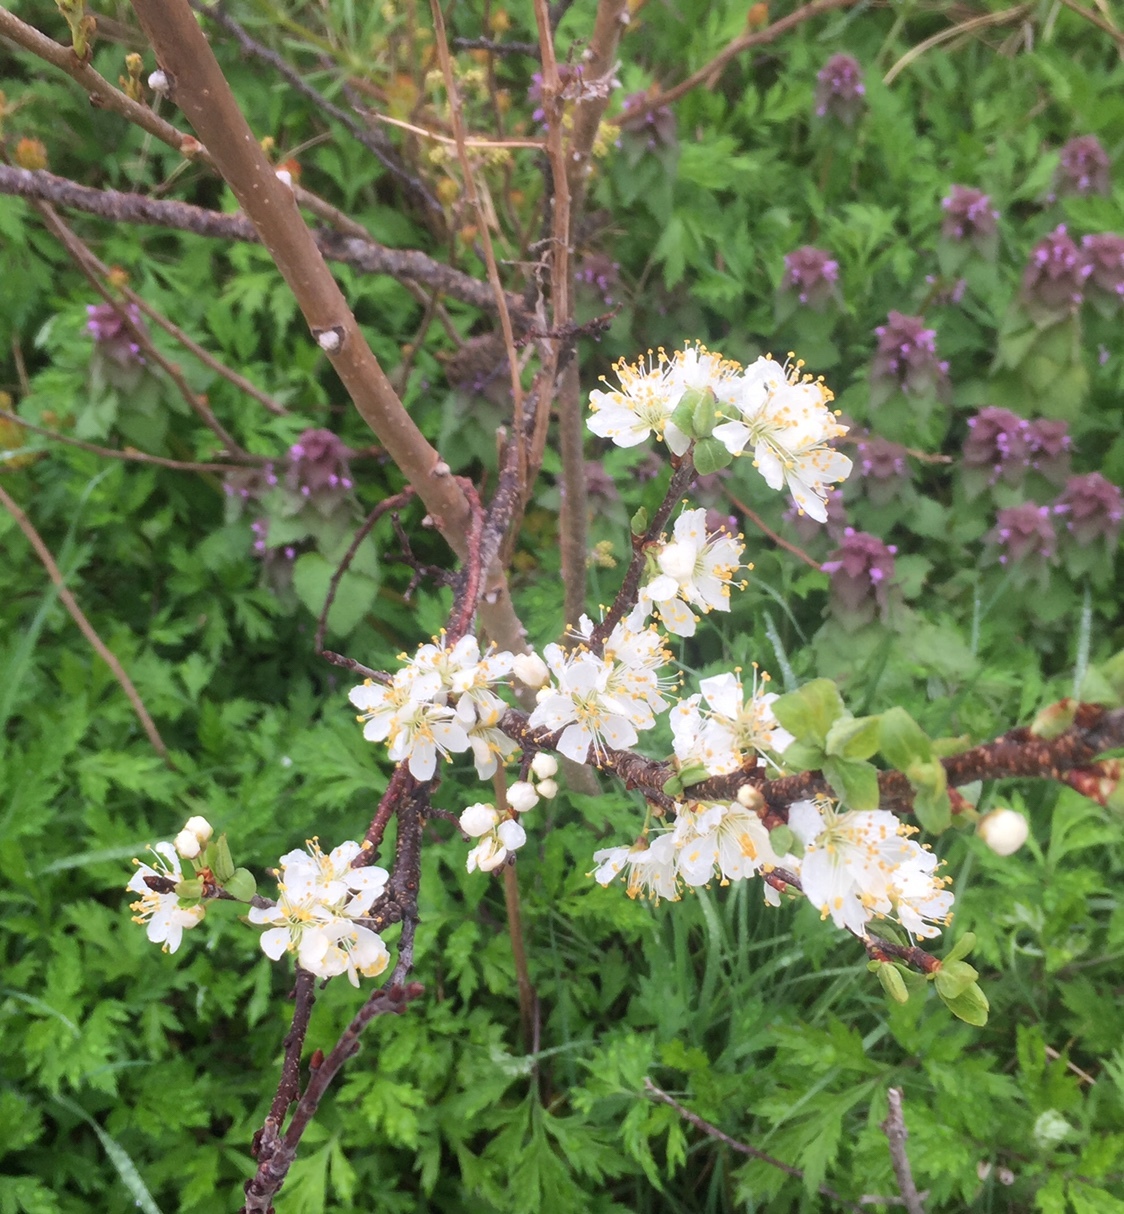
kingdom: Plantae
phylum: Tracheophyta
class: Magnoliopsida
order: Rosales
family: Rosaceae
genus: Prunus
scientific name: Prunus maritima
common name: Beach plum
